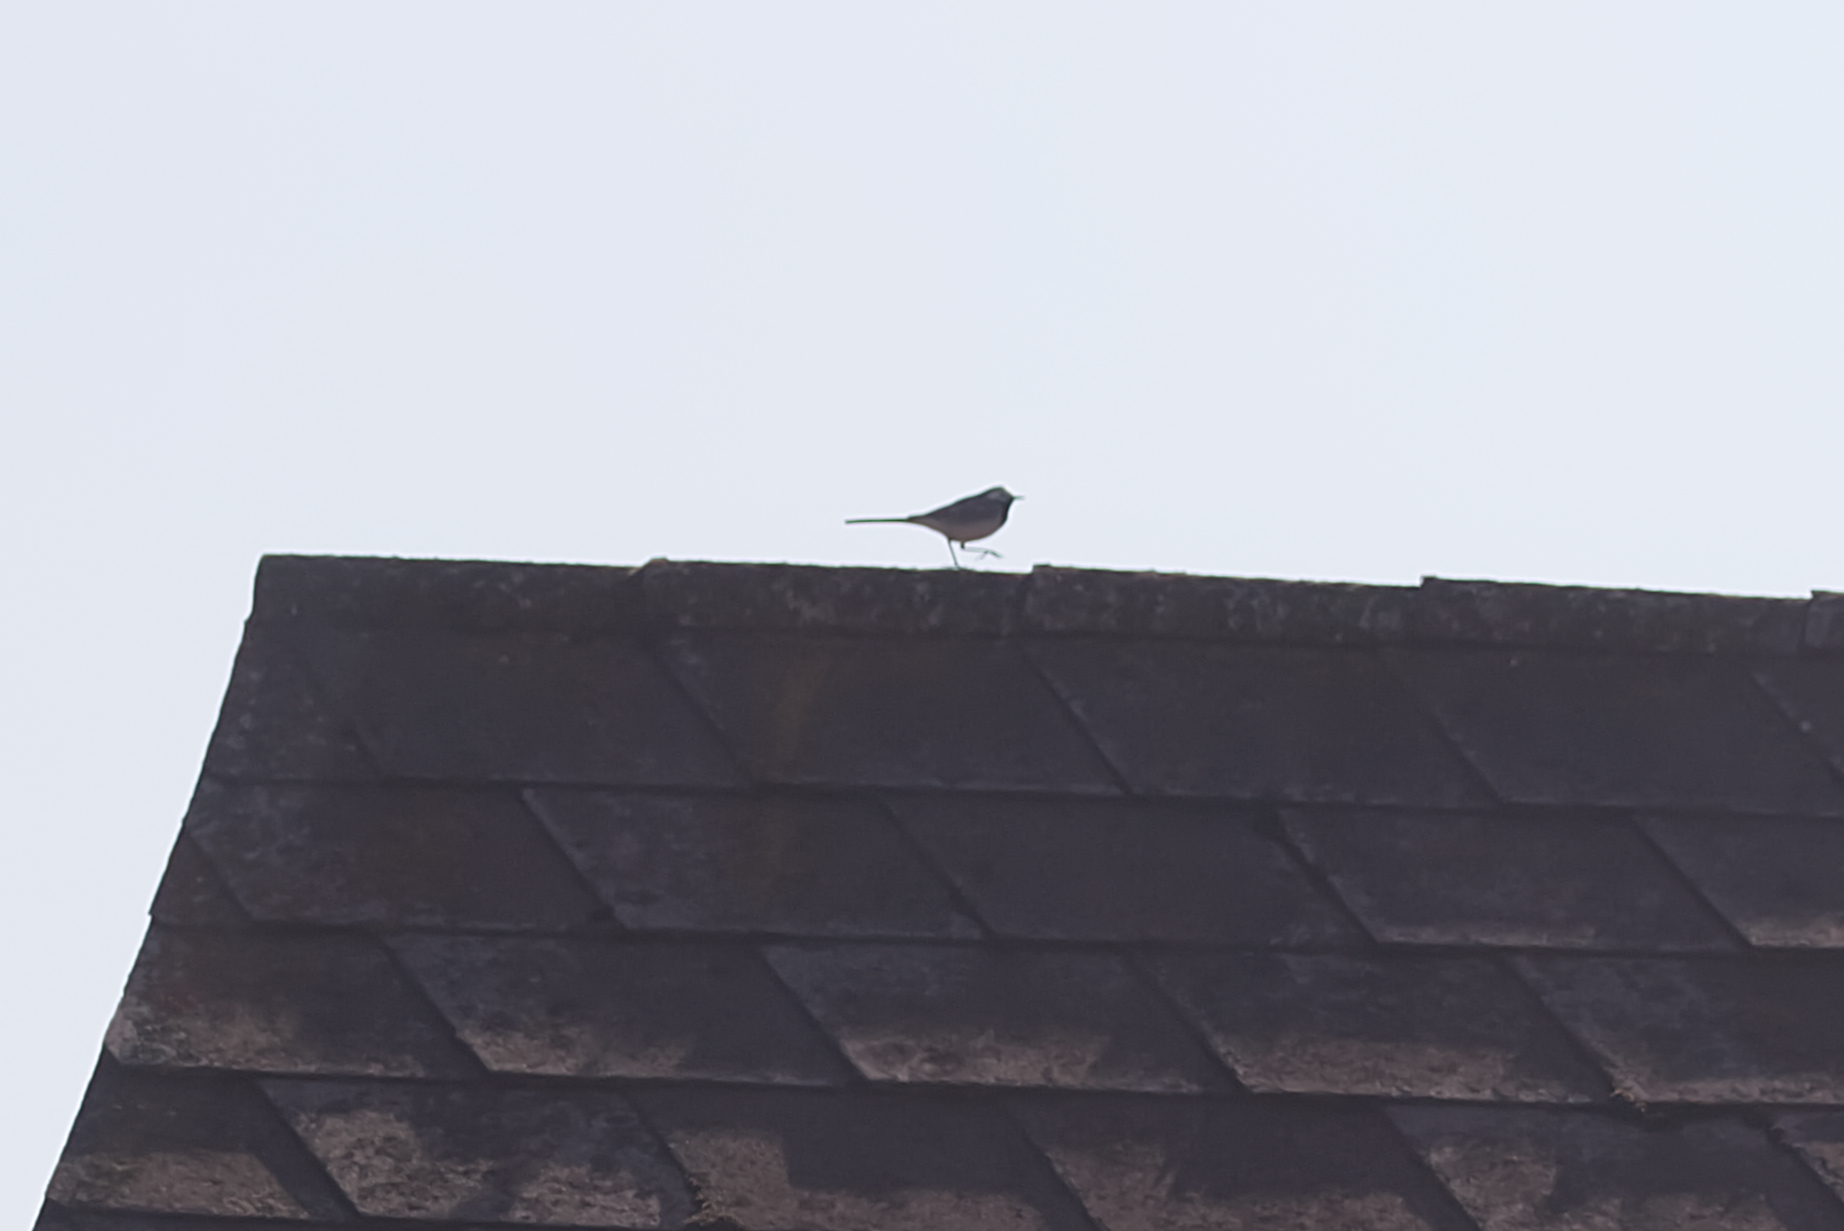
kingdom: Animalia
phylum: Chordata
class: Aves
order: Passeriformes
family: Motacillidae
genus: Motacilla
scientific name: Motacilla alba
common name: White wagtail
